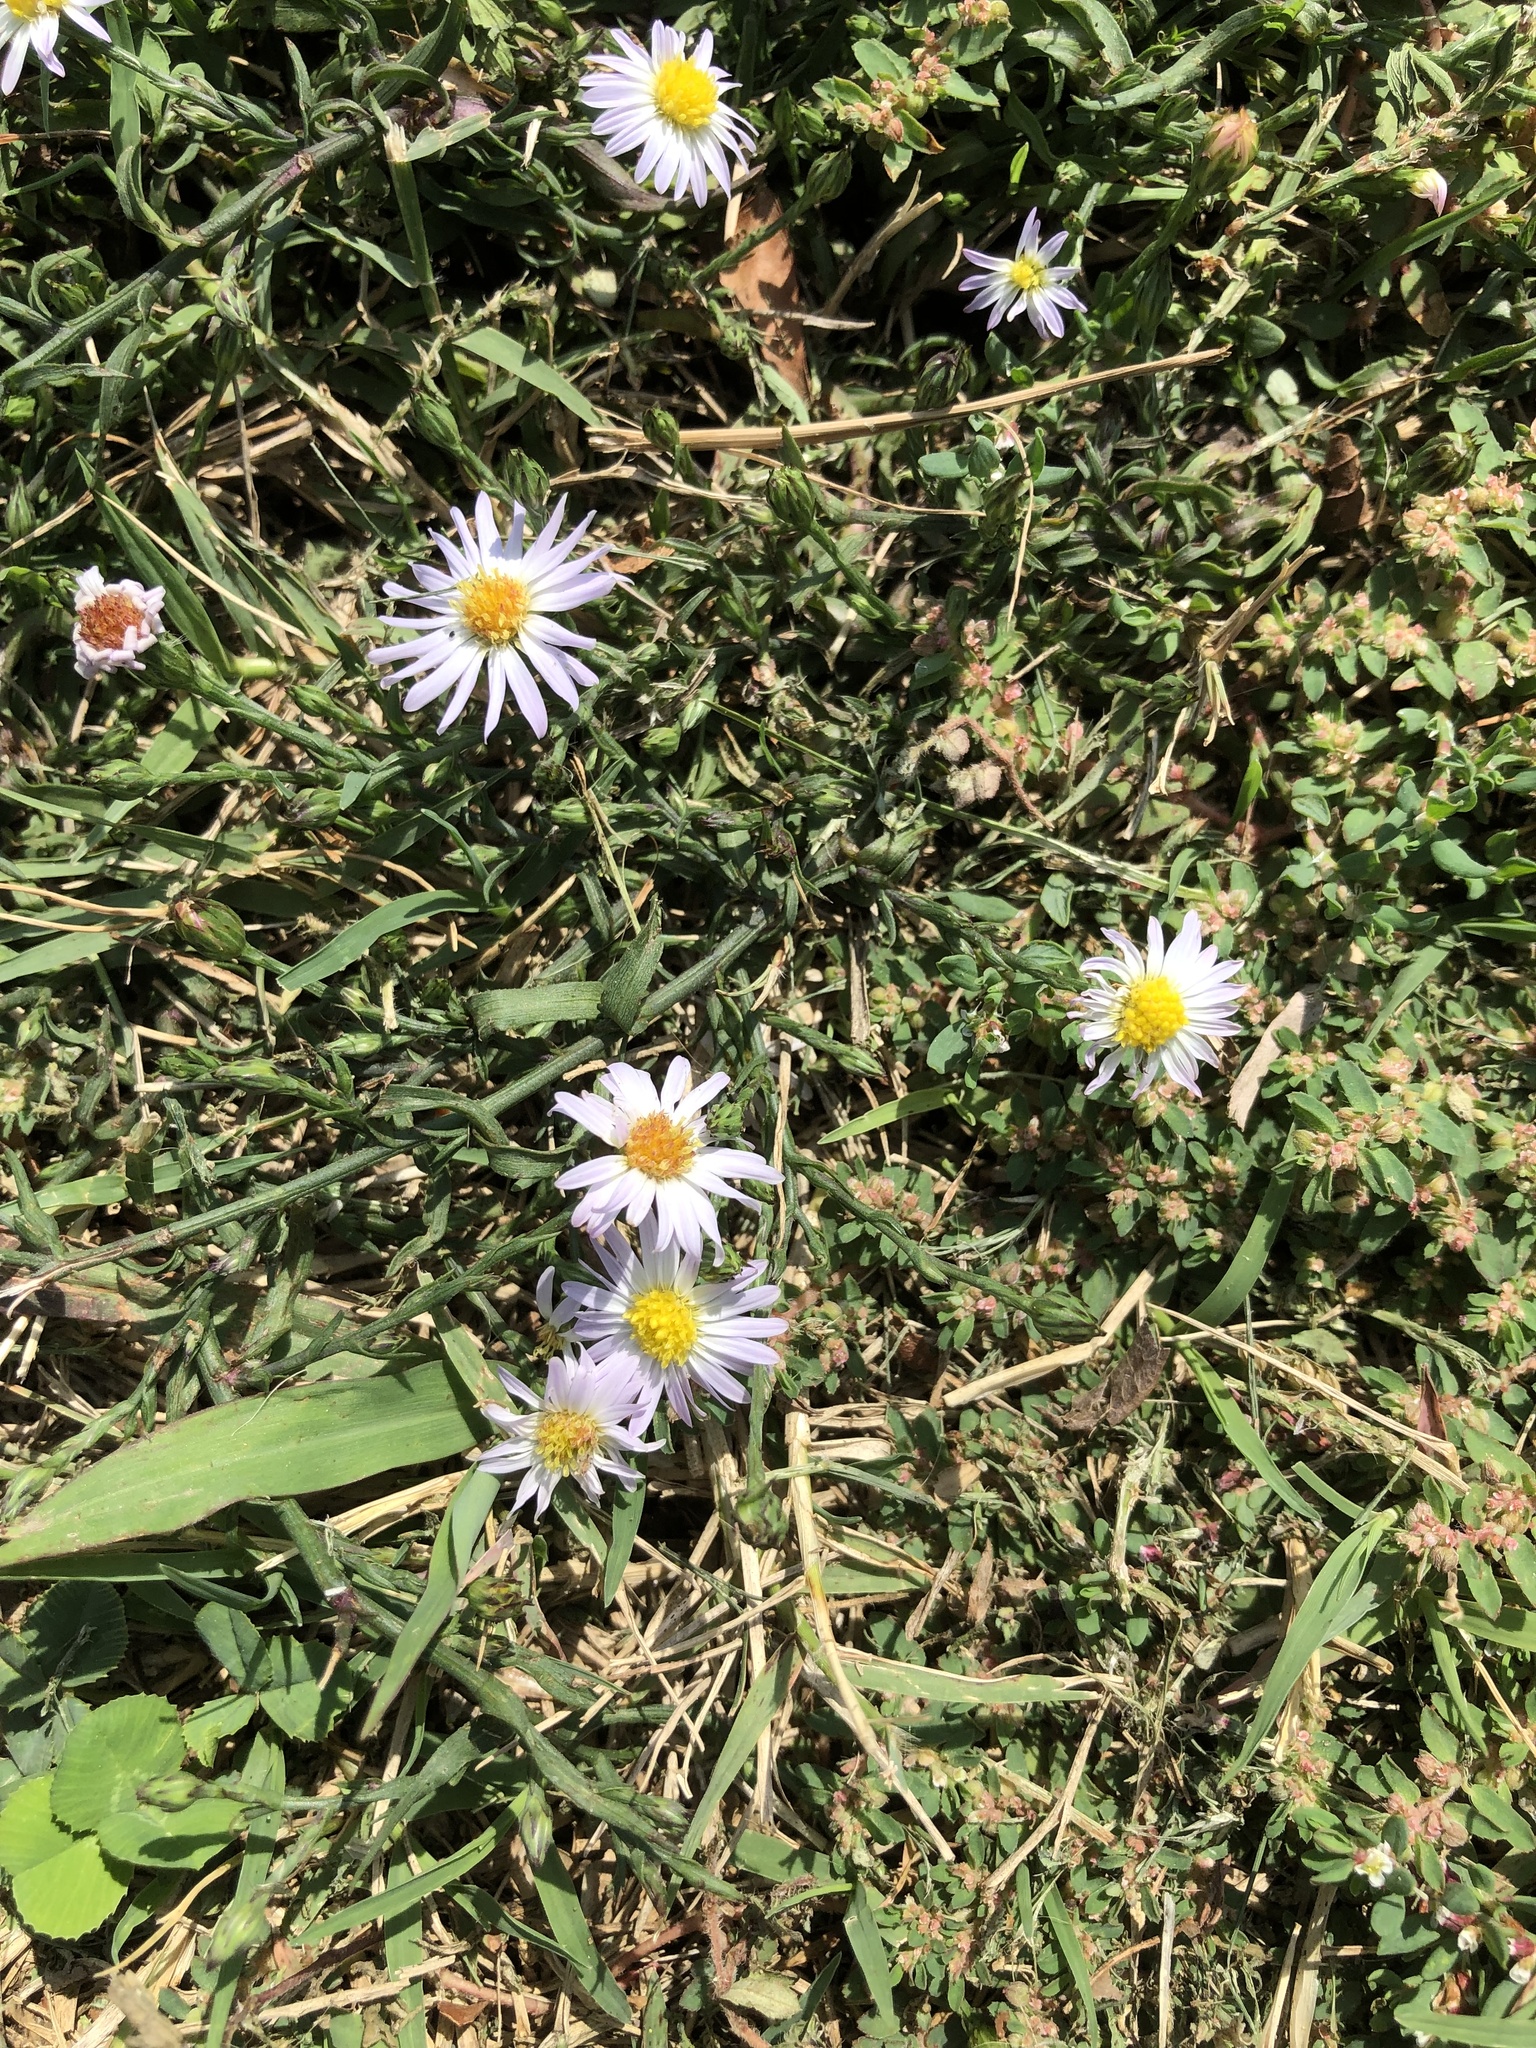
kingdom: Plantae
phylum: Tracheophyta
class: Magnoliopsida
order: Asterales
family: Asteraceae
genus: Symphyotrichum
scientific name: Symphyotrichum divaricatum
